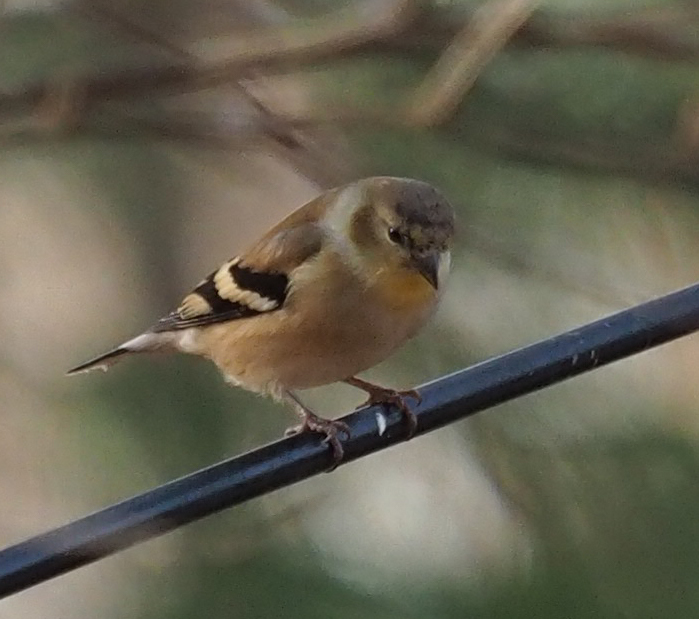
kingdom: Animalia
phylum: Chordata
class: Aves
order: Passeriformes
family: Fringillidae
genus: Spinus
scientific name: Spinus tristis
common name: American goldfinch
